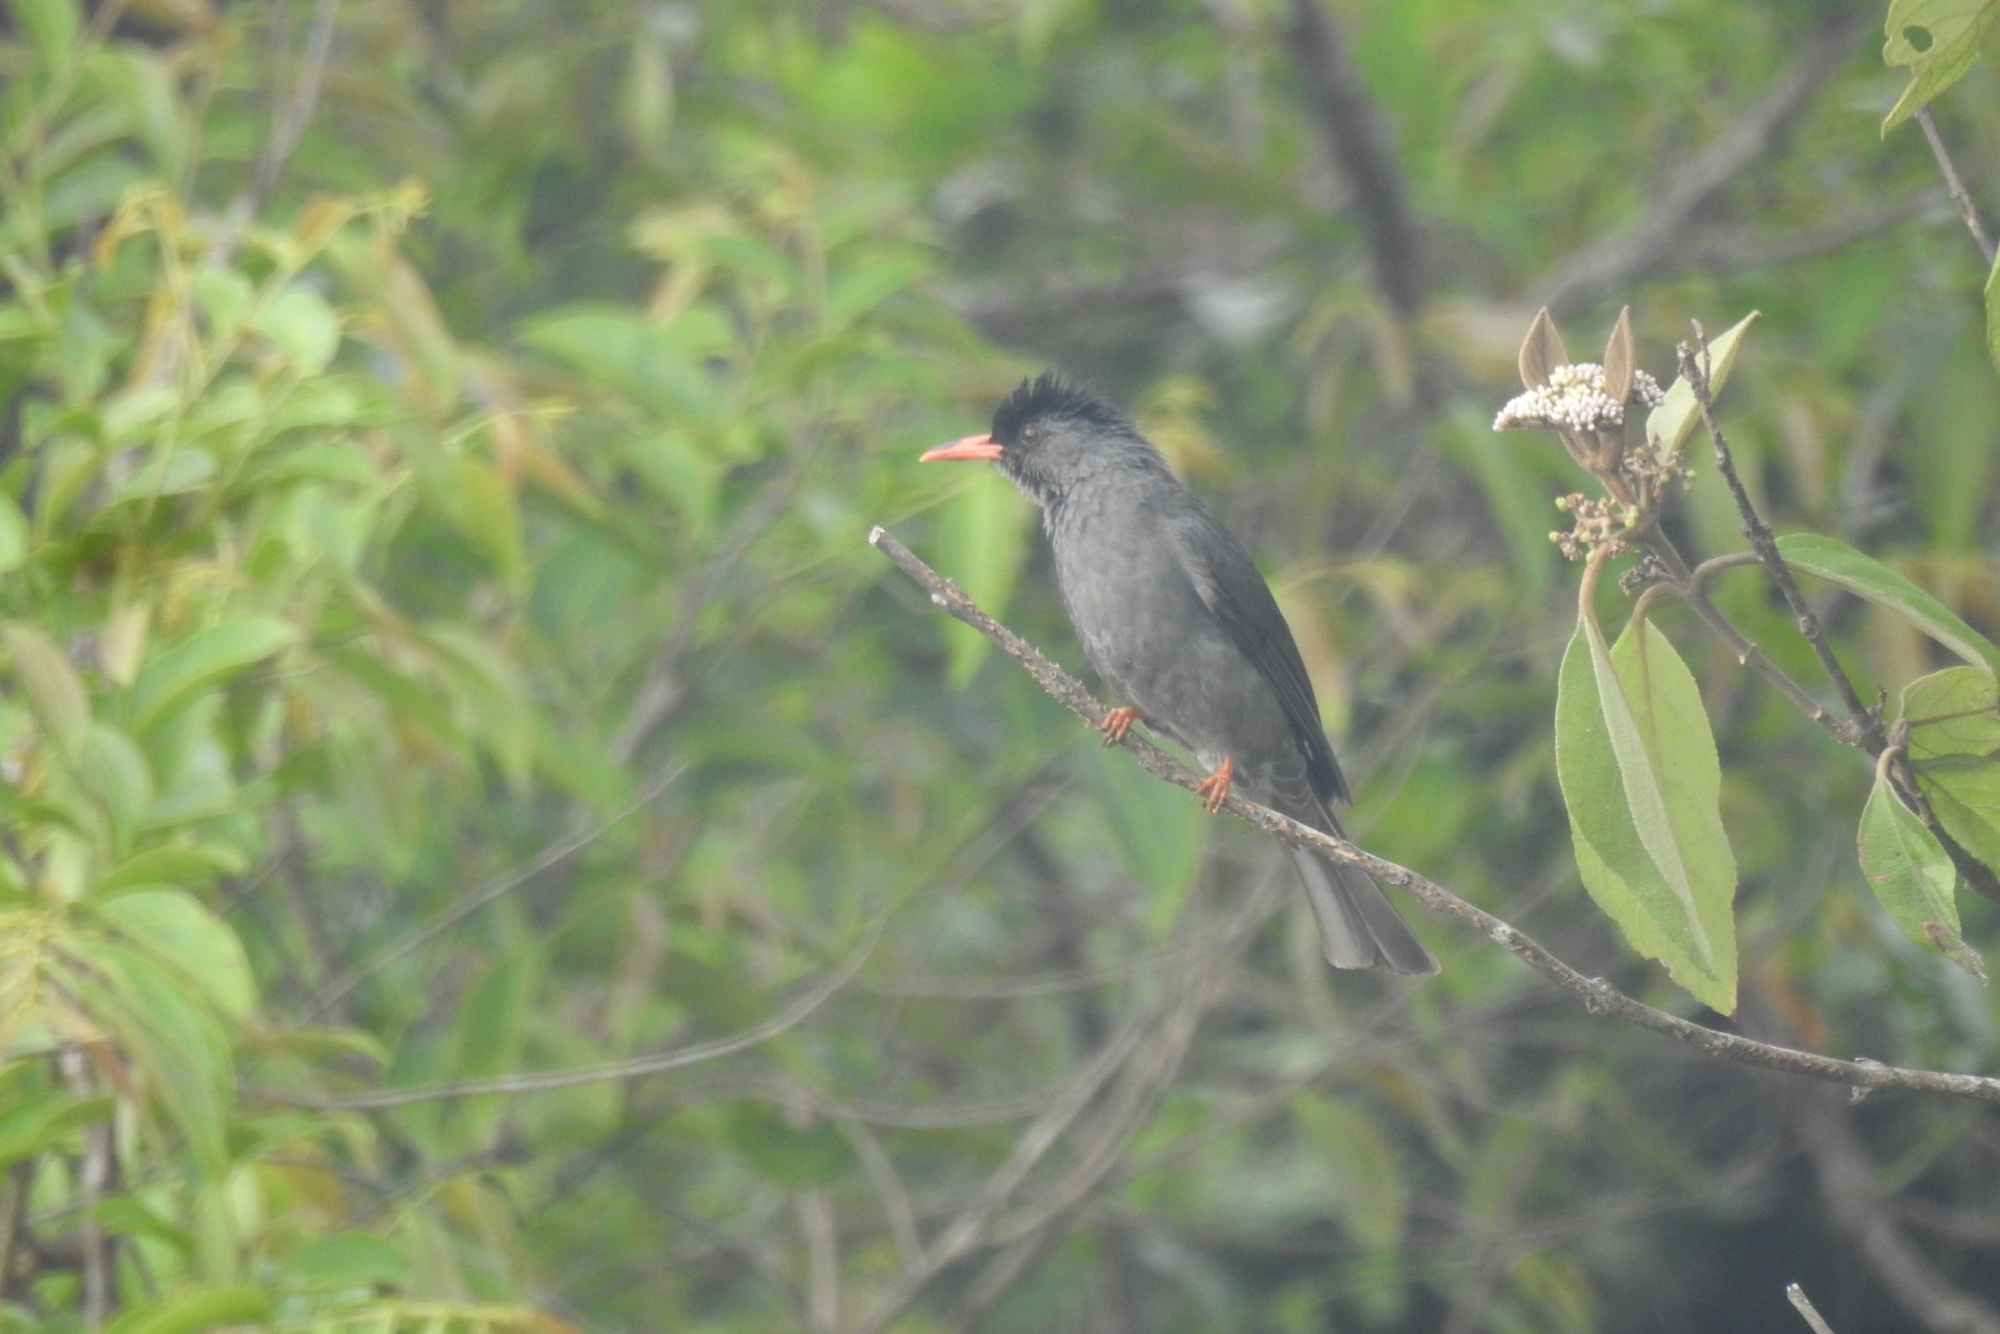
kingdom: Animalia
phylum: Chordata
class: Aves
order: Passeriformes
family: Pycnonotidae
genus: Hypsipetes
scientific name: Hypsipetes ganeesa
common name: Square-tailed bulbul
